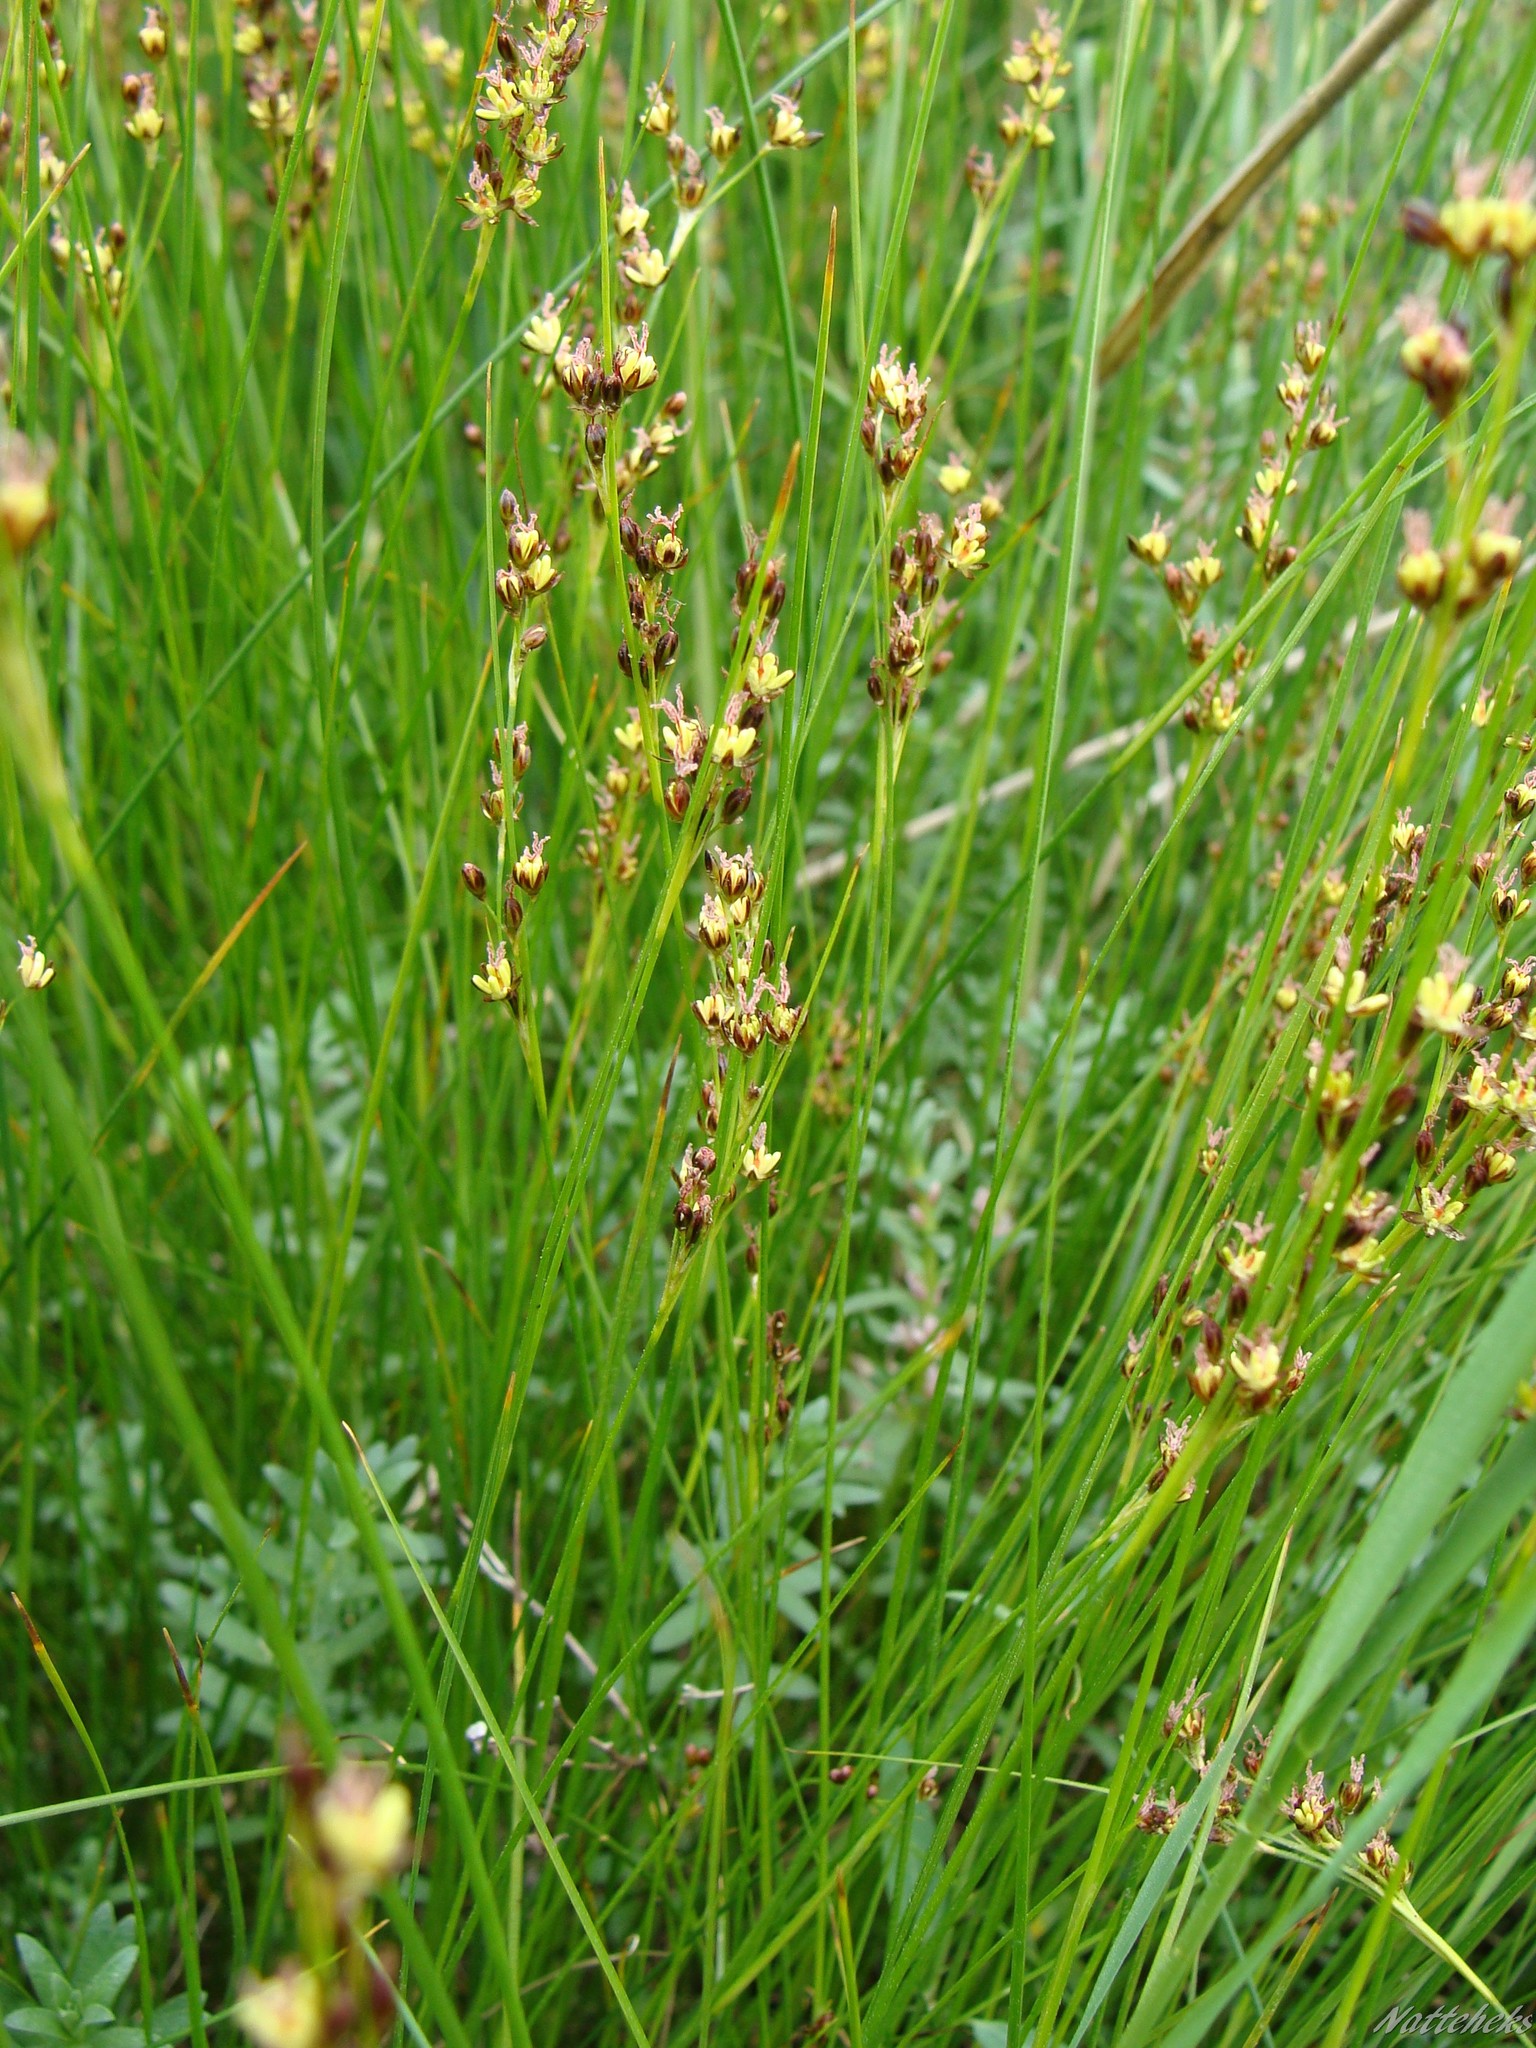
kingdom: Plantae
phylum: Tracheophyta
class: Liliopsida
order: Poales
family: Juncaceae
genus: Juncus
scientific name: Juncus gerardi
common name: Saltmarsh rush
